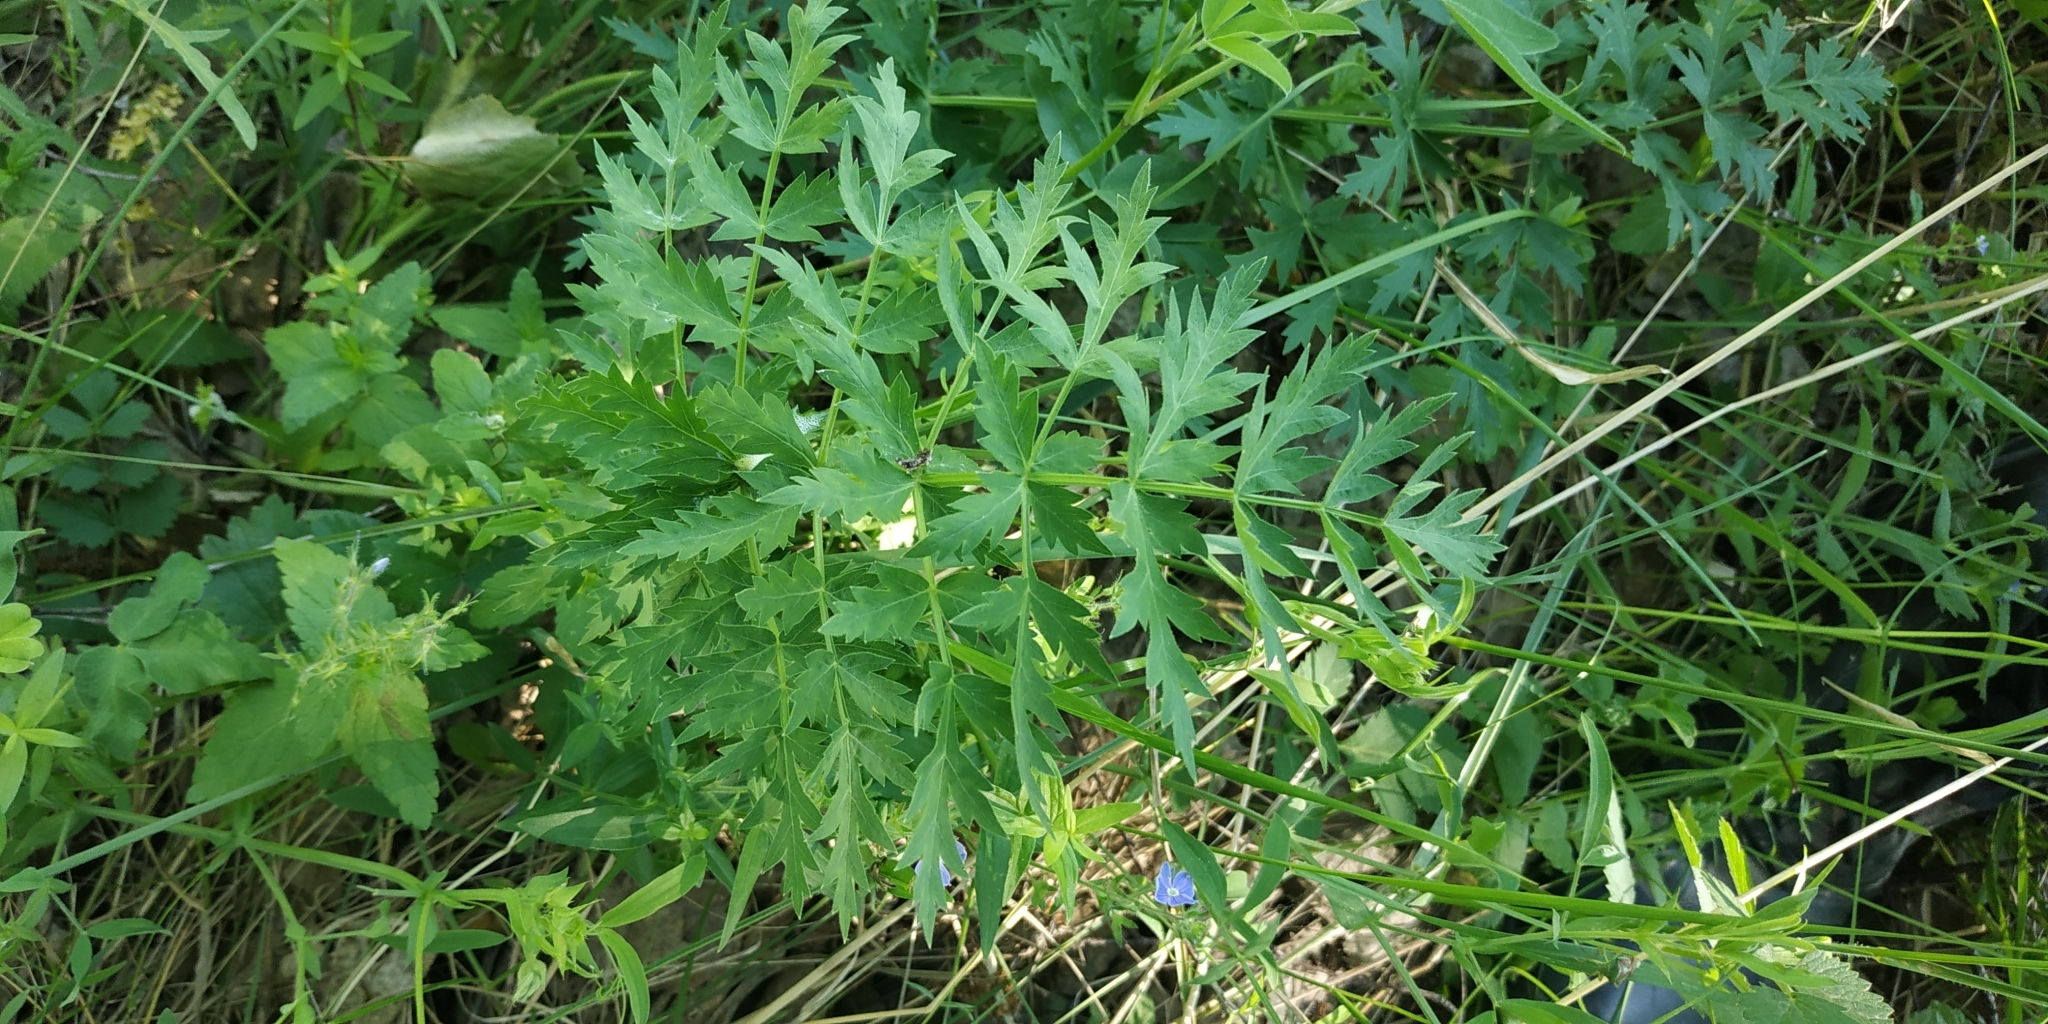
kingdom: Plantae
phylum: Tracheophyta
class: Magnoliopsida
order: Apiales
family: Apiaceae
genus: Seseli
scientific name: Seseli libanotis
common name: Mooncarrot
